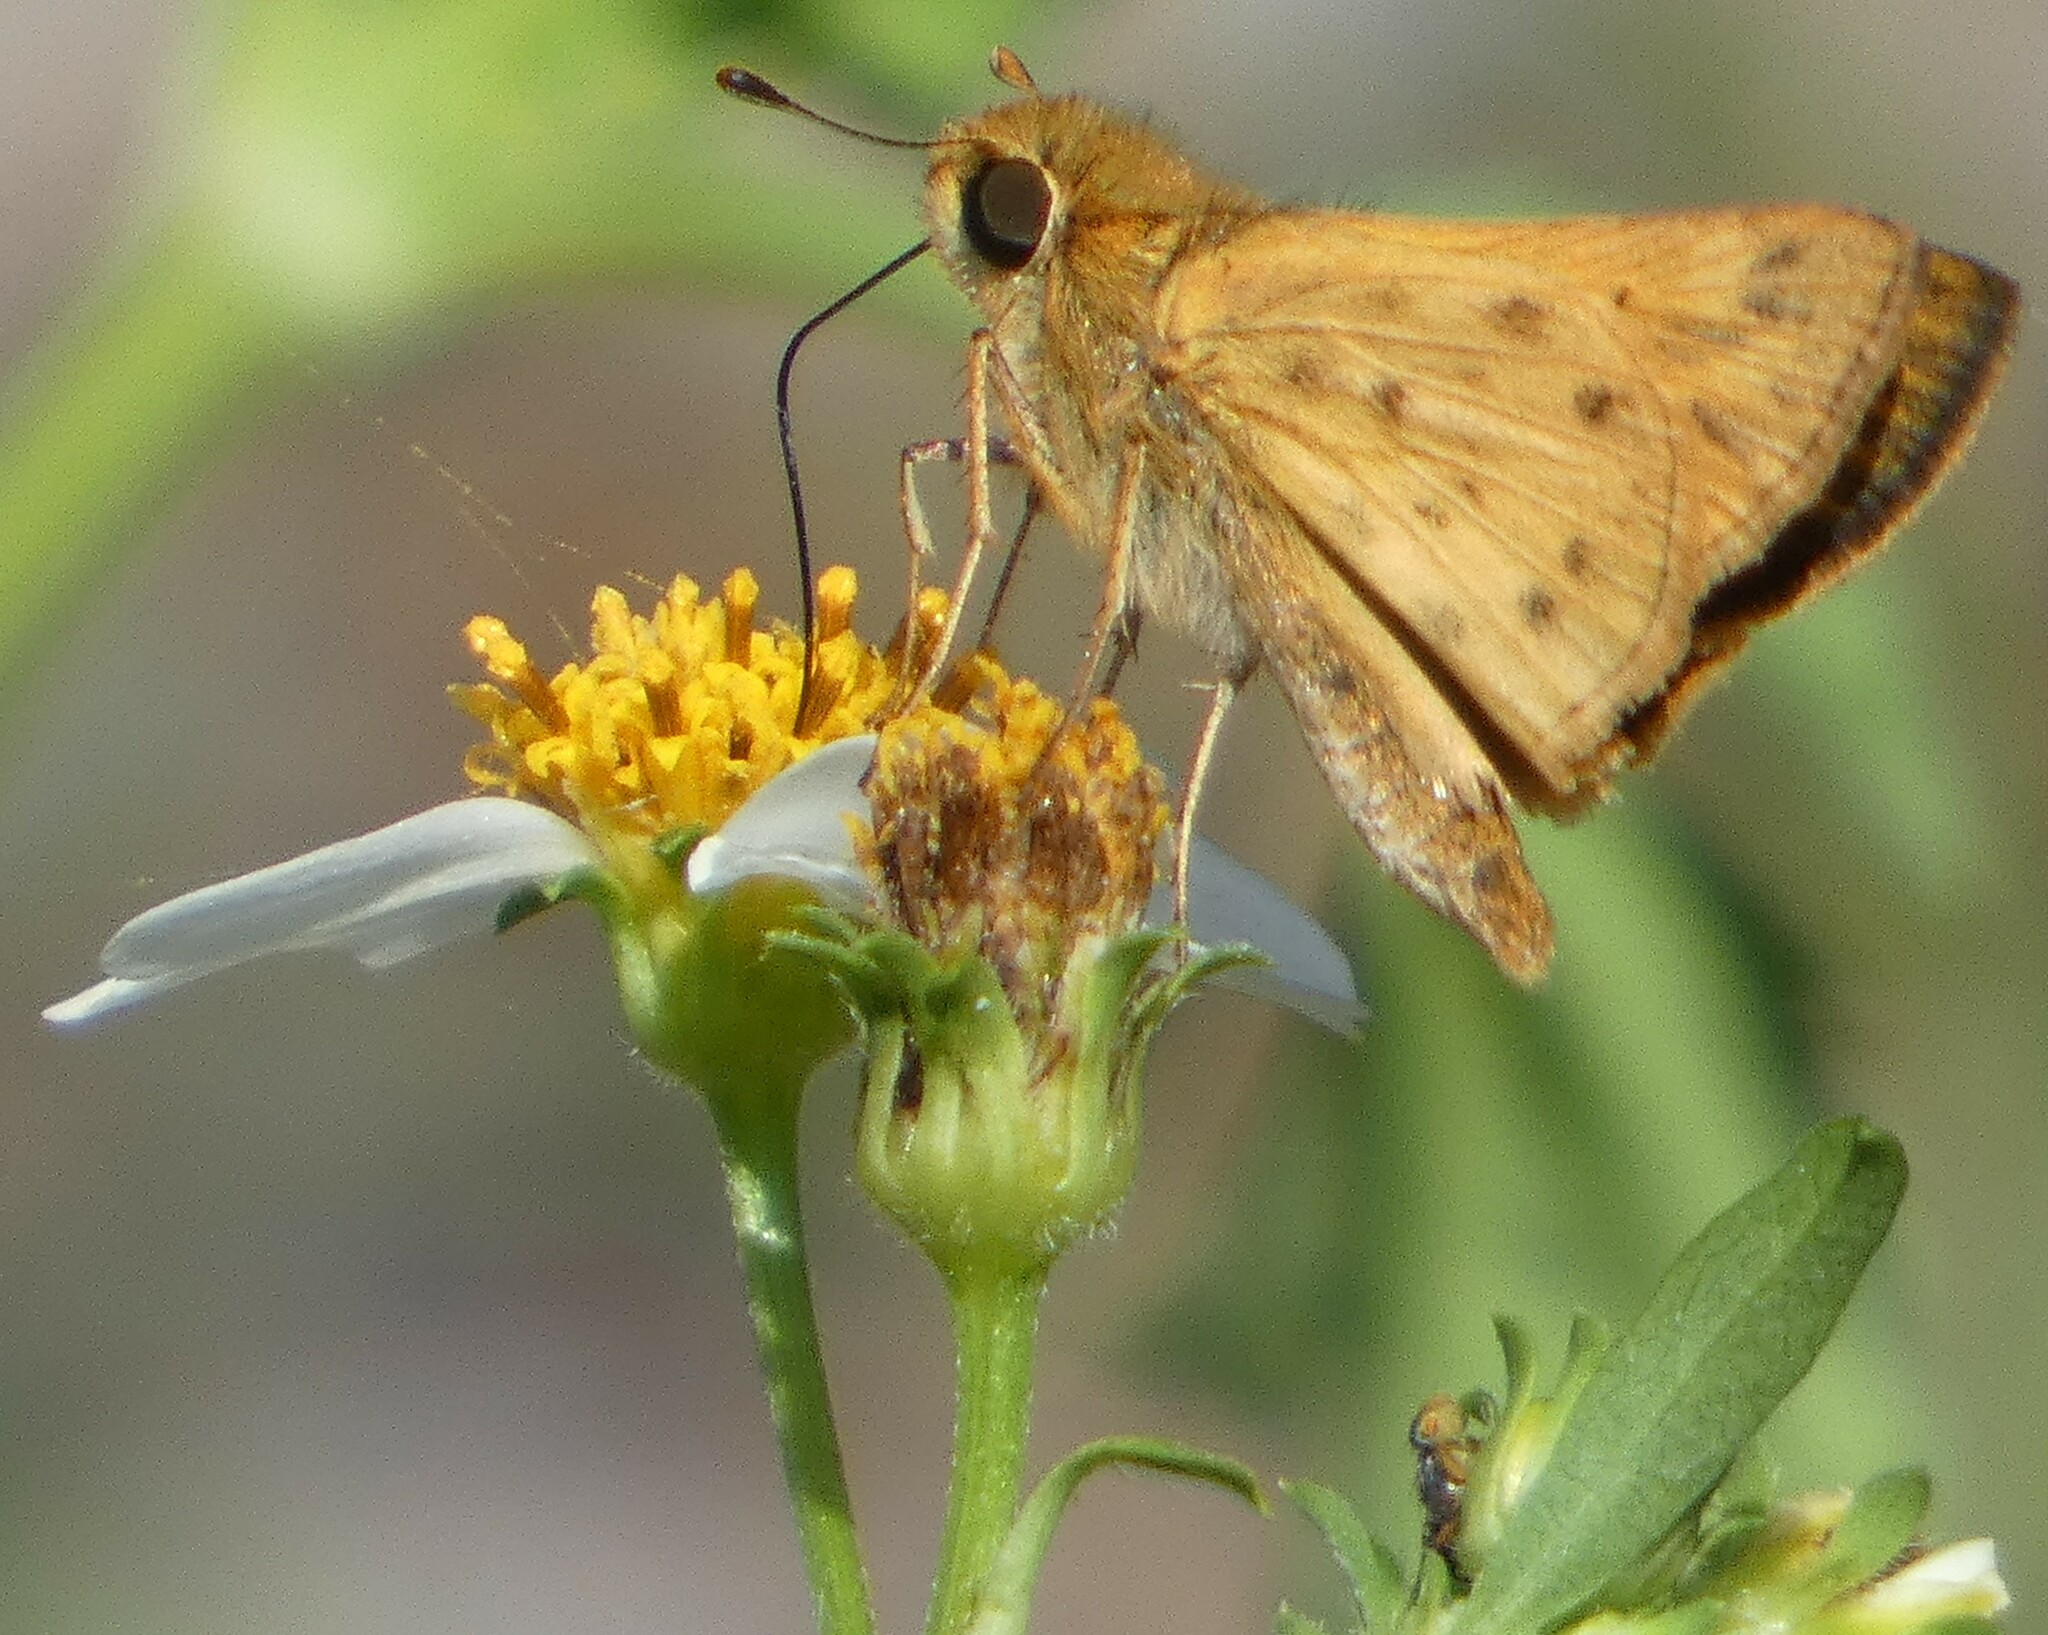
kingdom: Animalia
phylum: Arthropoda
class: Insecta
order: Lepidoptera
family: Hesperiidae
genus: Hylephila
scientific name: Hylephila phyleus
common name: Fiery skipper
